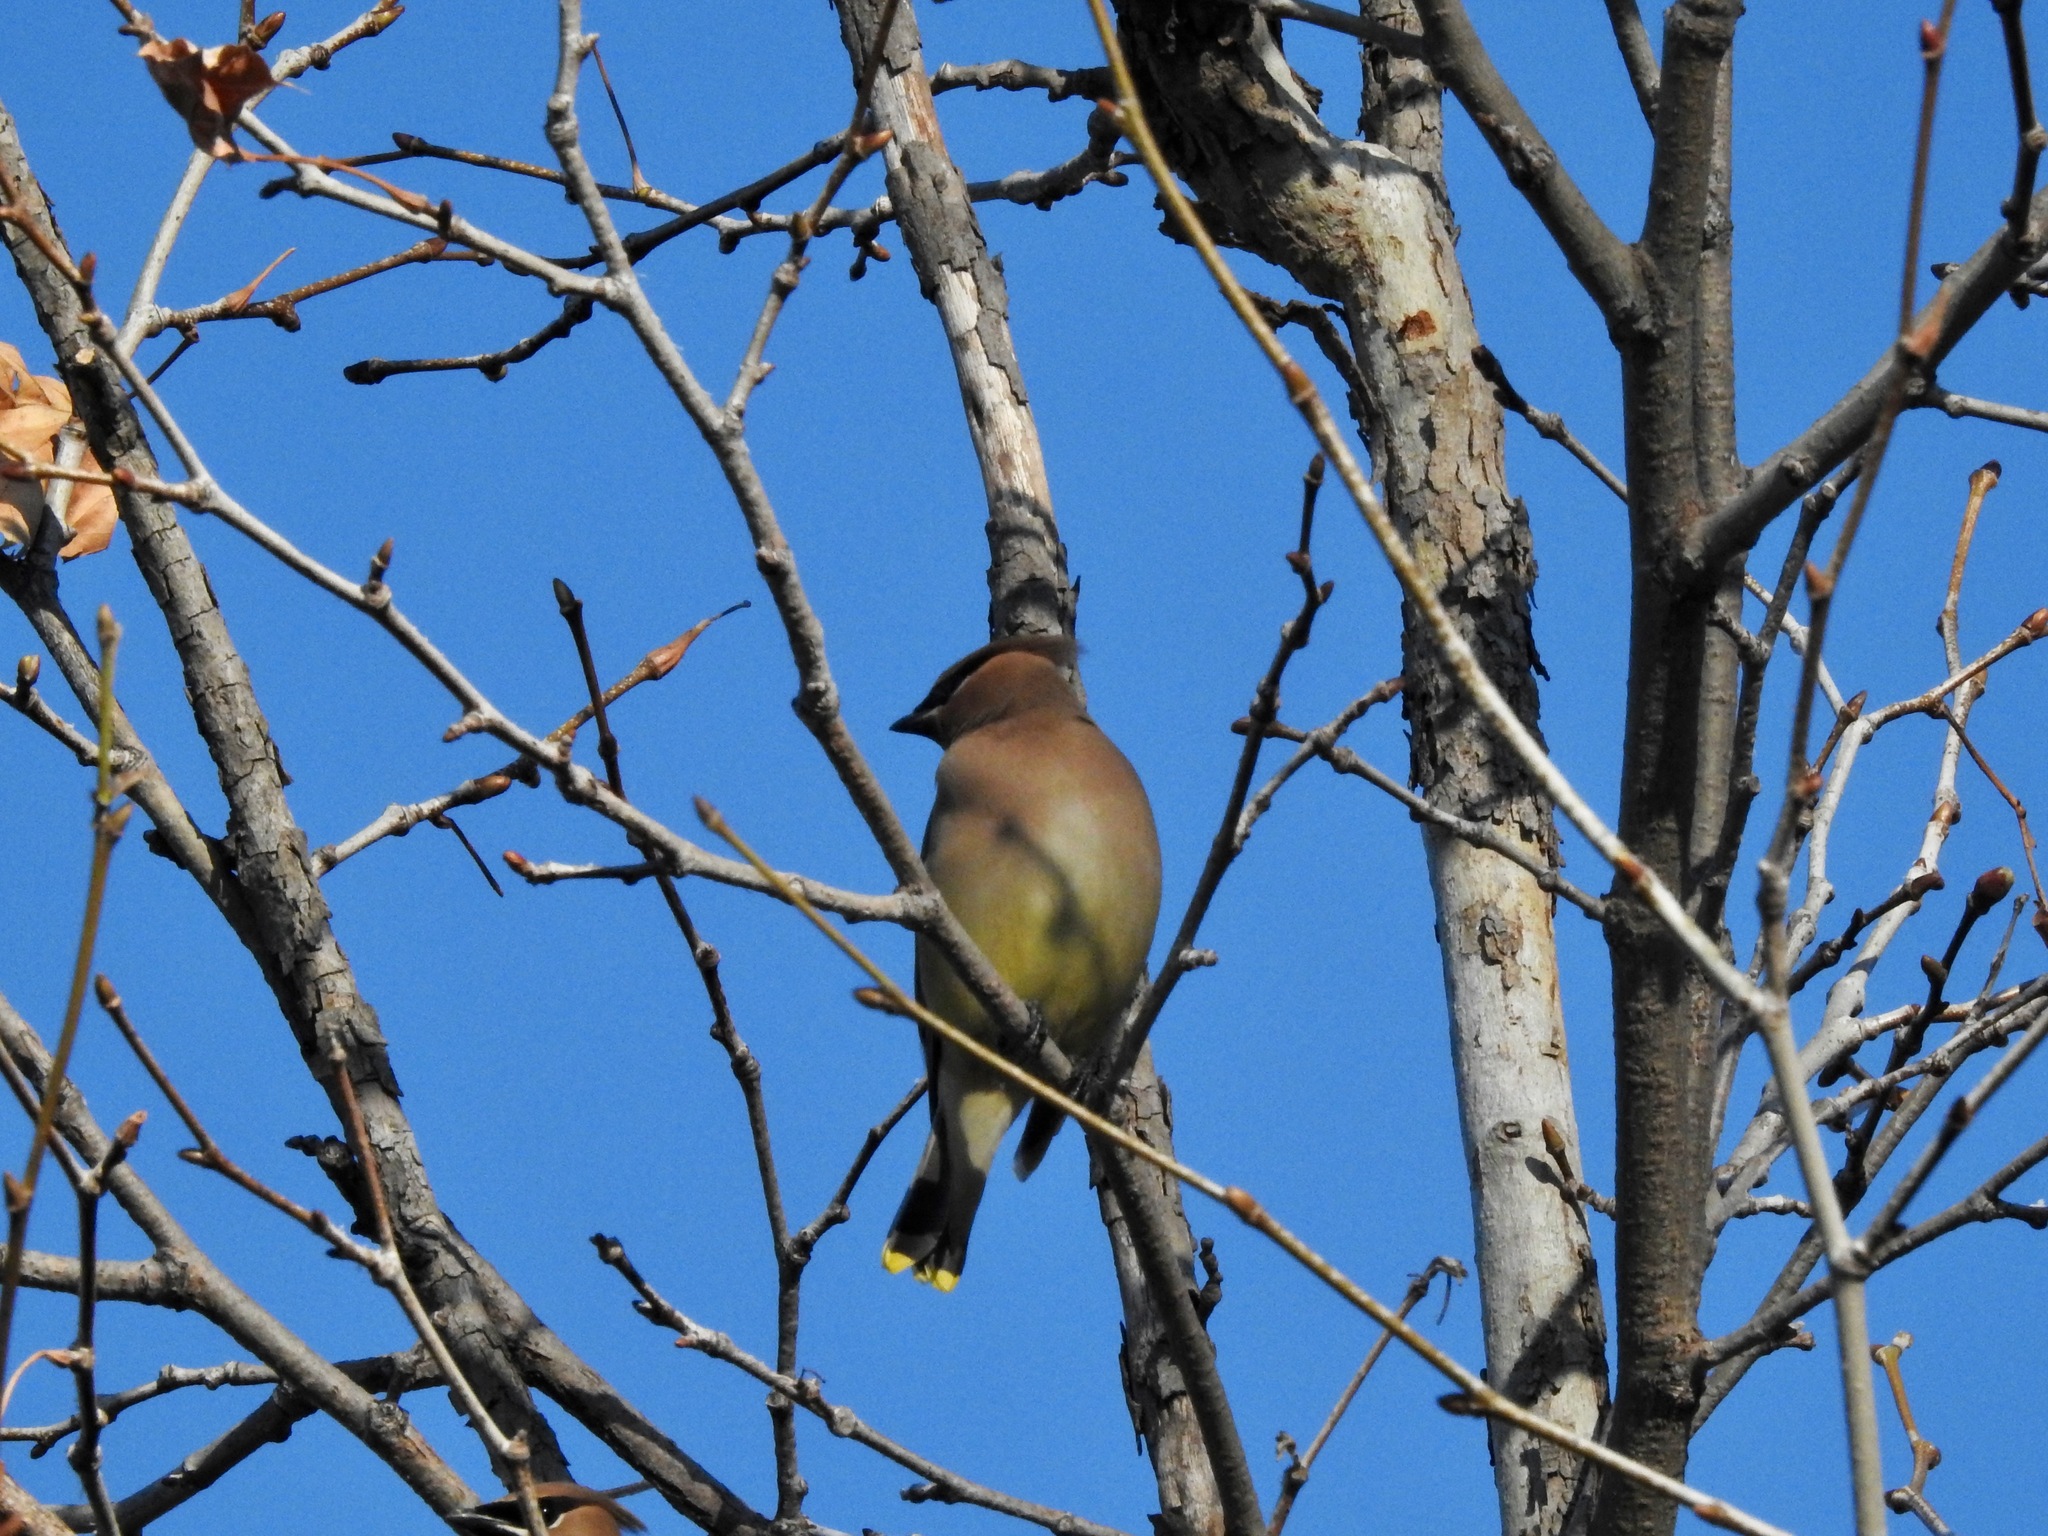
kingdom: Animalia
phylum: Chordata
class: Aves
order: Passeriformes
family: Bombycillidae
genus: Bombycilla
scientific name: Bombycilla cedrorum
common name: Cedar waxwing
